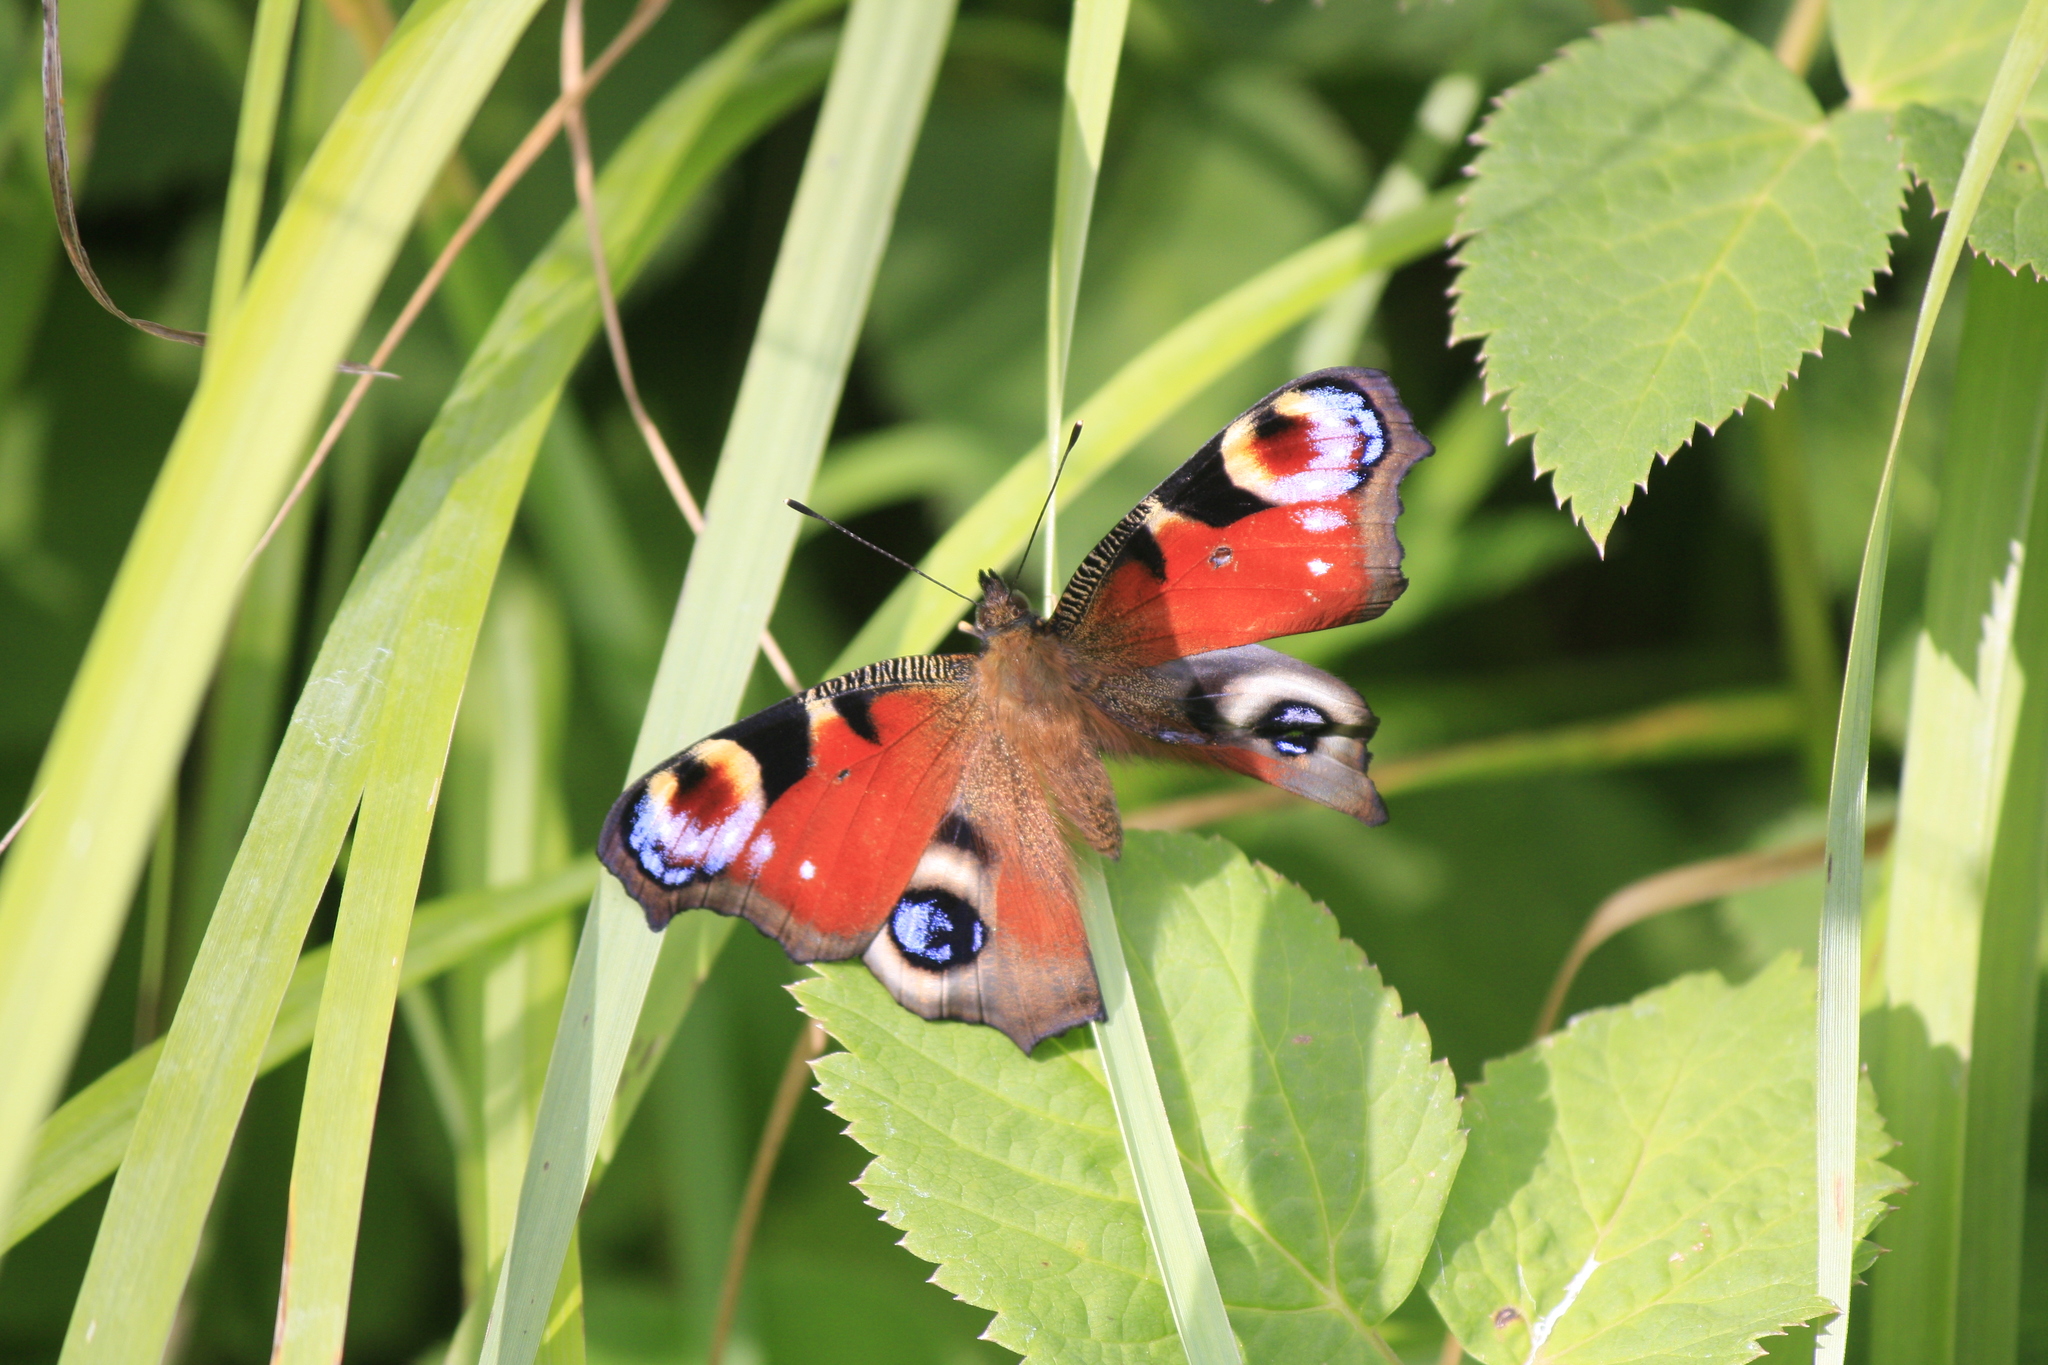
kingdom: Animalia
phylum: Arthropoda
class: Insecta
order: Lepidoptera
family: Nymphalidae
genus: Aglais
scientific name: Aglais io
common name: Peacock
